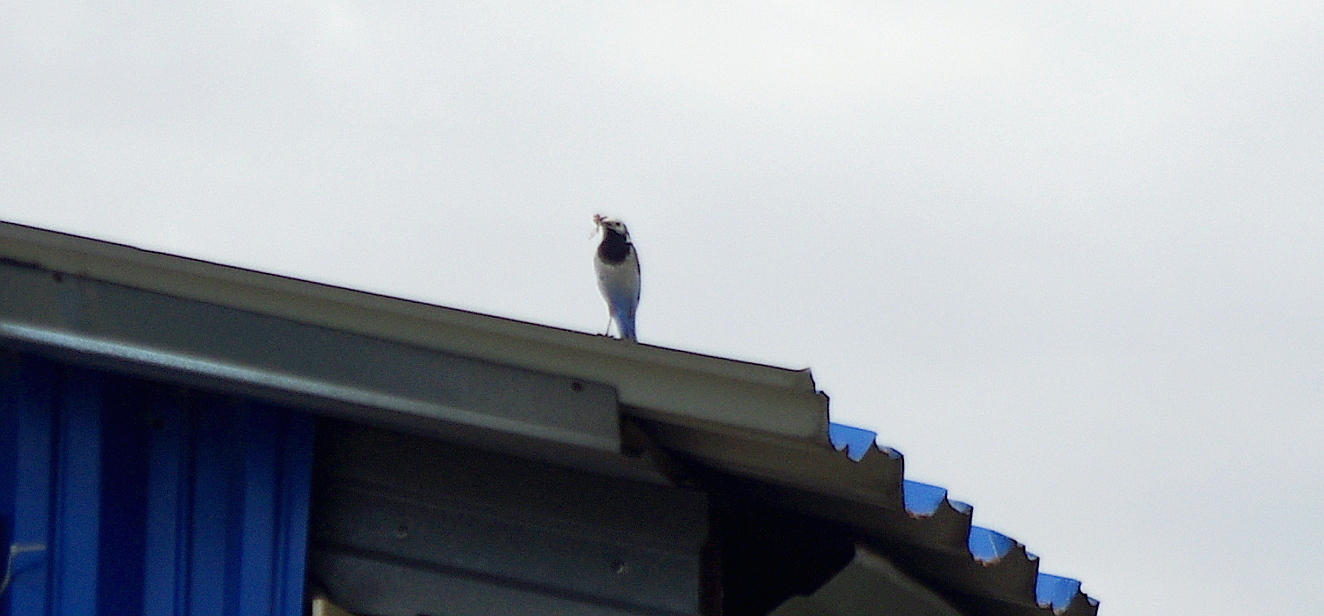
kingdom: Animalia
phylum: Chordata
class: Aves
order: Passeriformes
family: Motacillidae
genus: Motacilla
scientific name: Motacilla alba
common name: White wagtail
